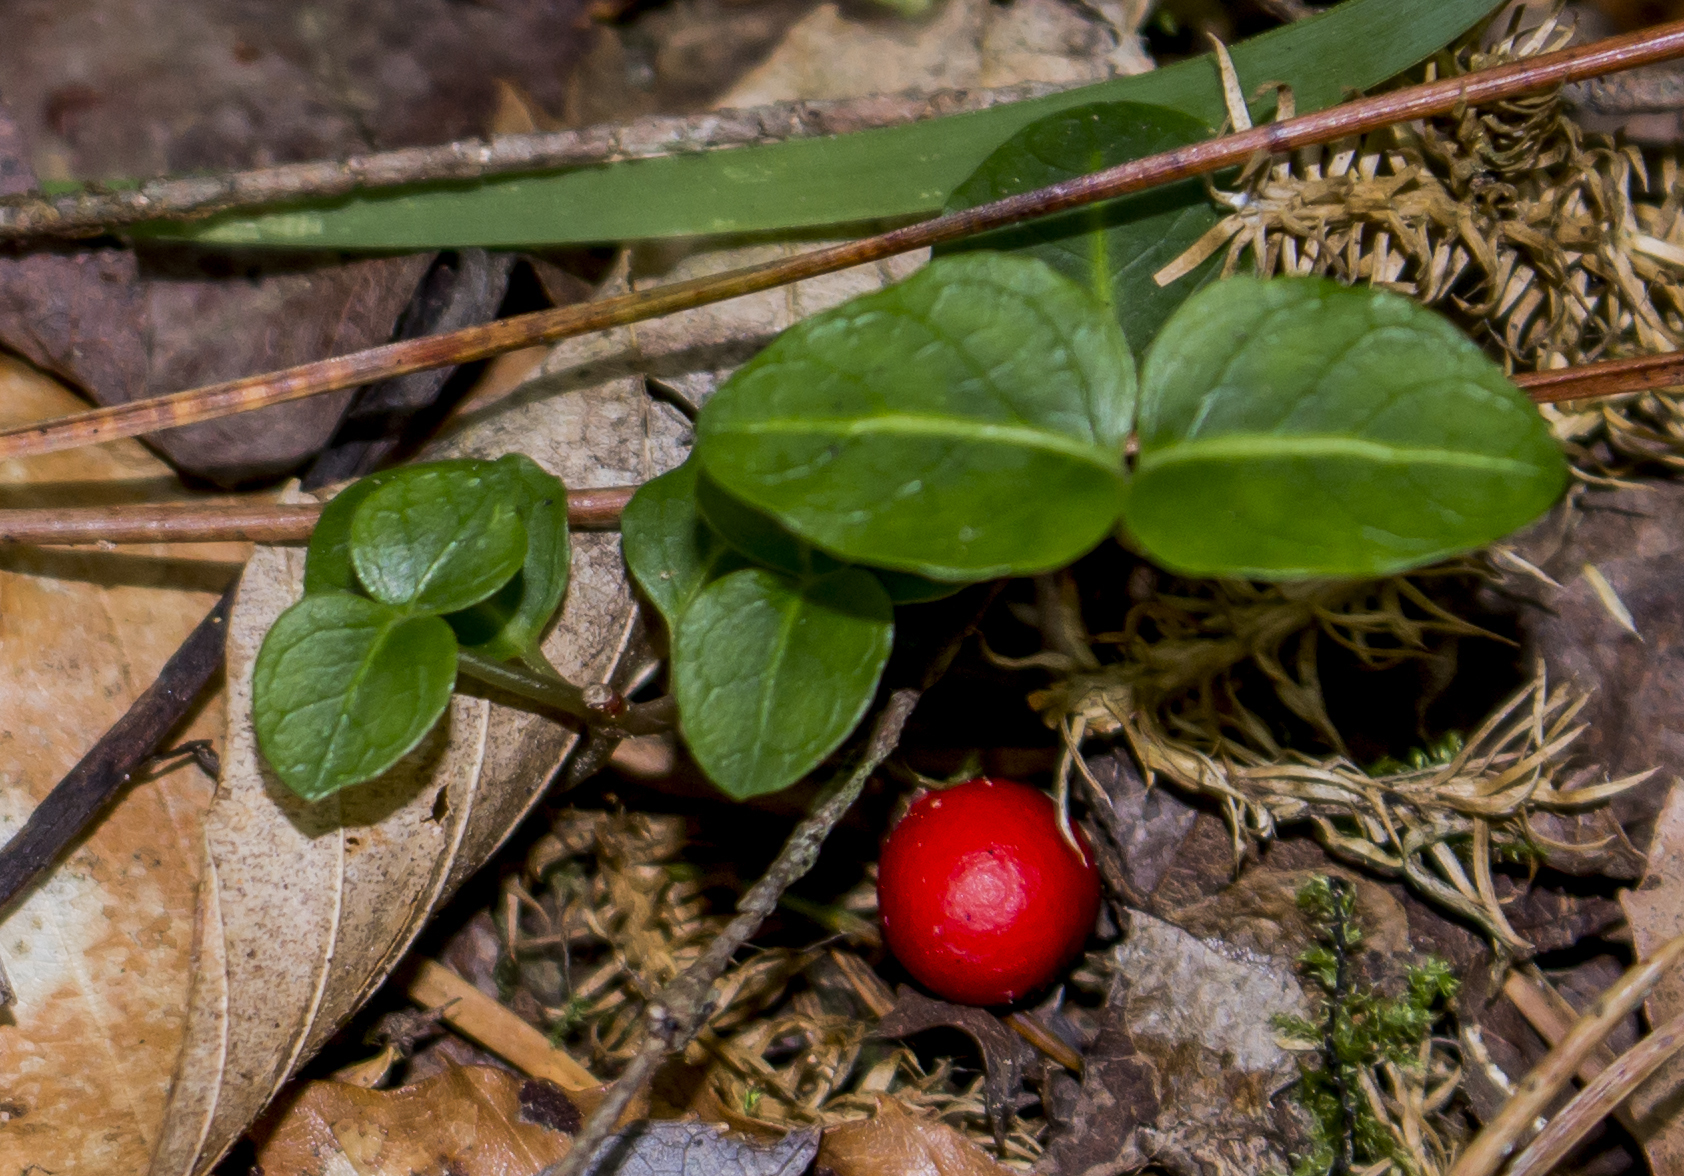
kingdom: Plantae
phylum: Tracheophyta
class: Magnoliopsida
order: Gentianales
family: Rubiaceae
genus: Mitchella
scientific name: Mitchella repens
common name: Partridge-berry
